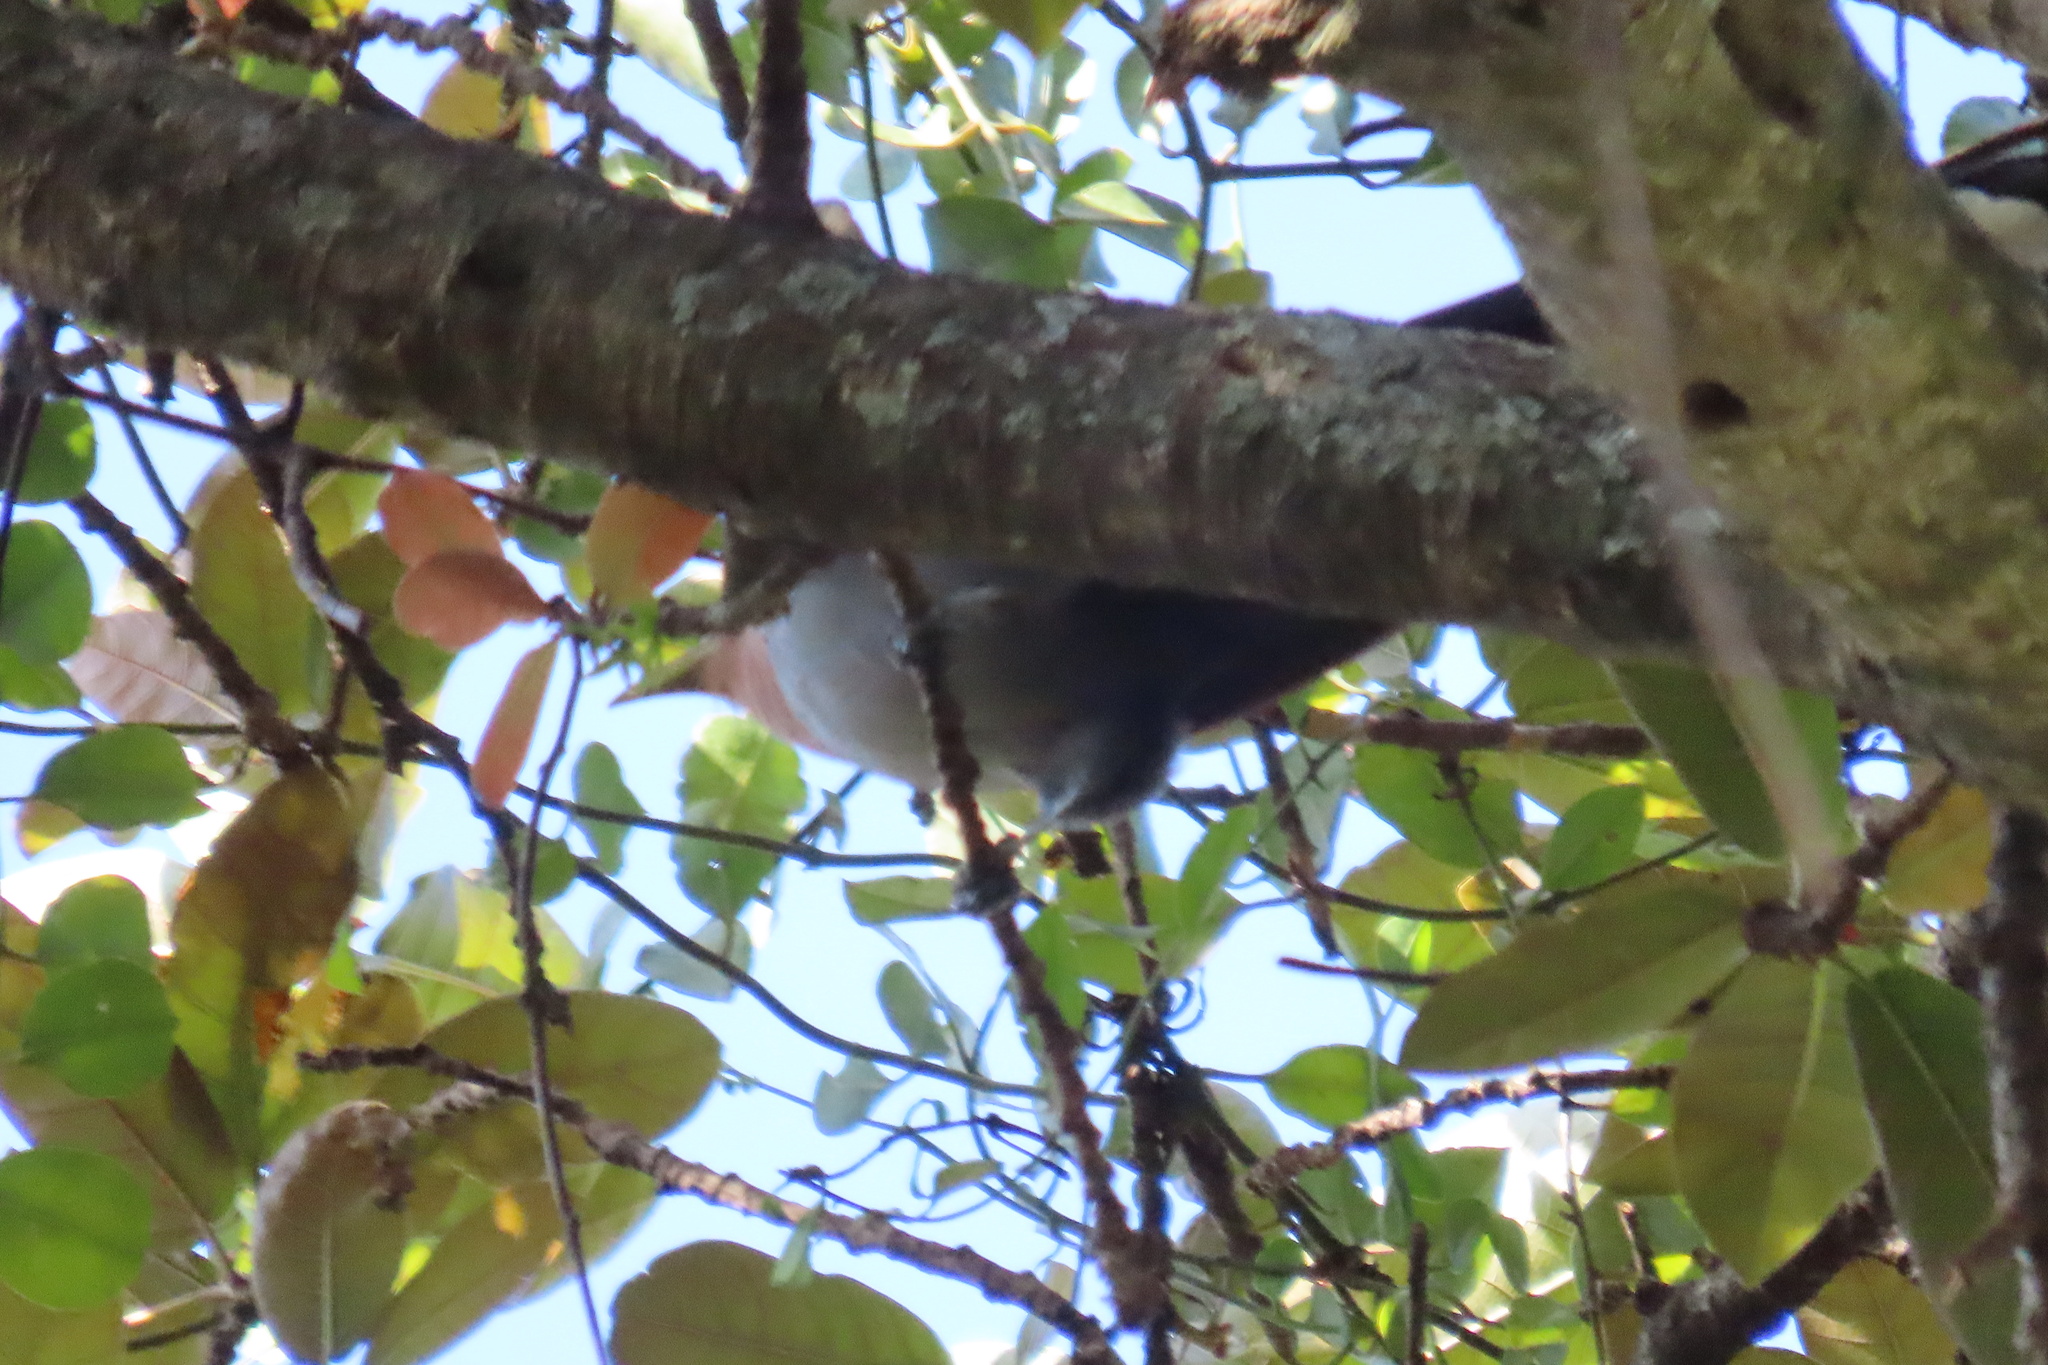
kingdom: Animalia
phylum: Chordata
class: Aves
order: Cuculiformes
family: Cuculidae
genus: Piaya
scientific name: Piaya cayana
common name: Squirrel cuckoo
